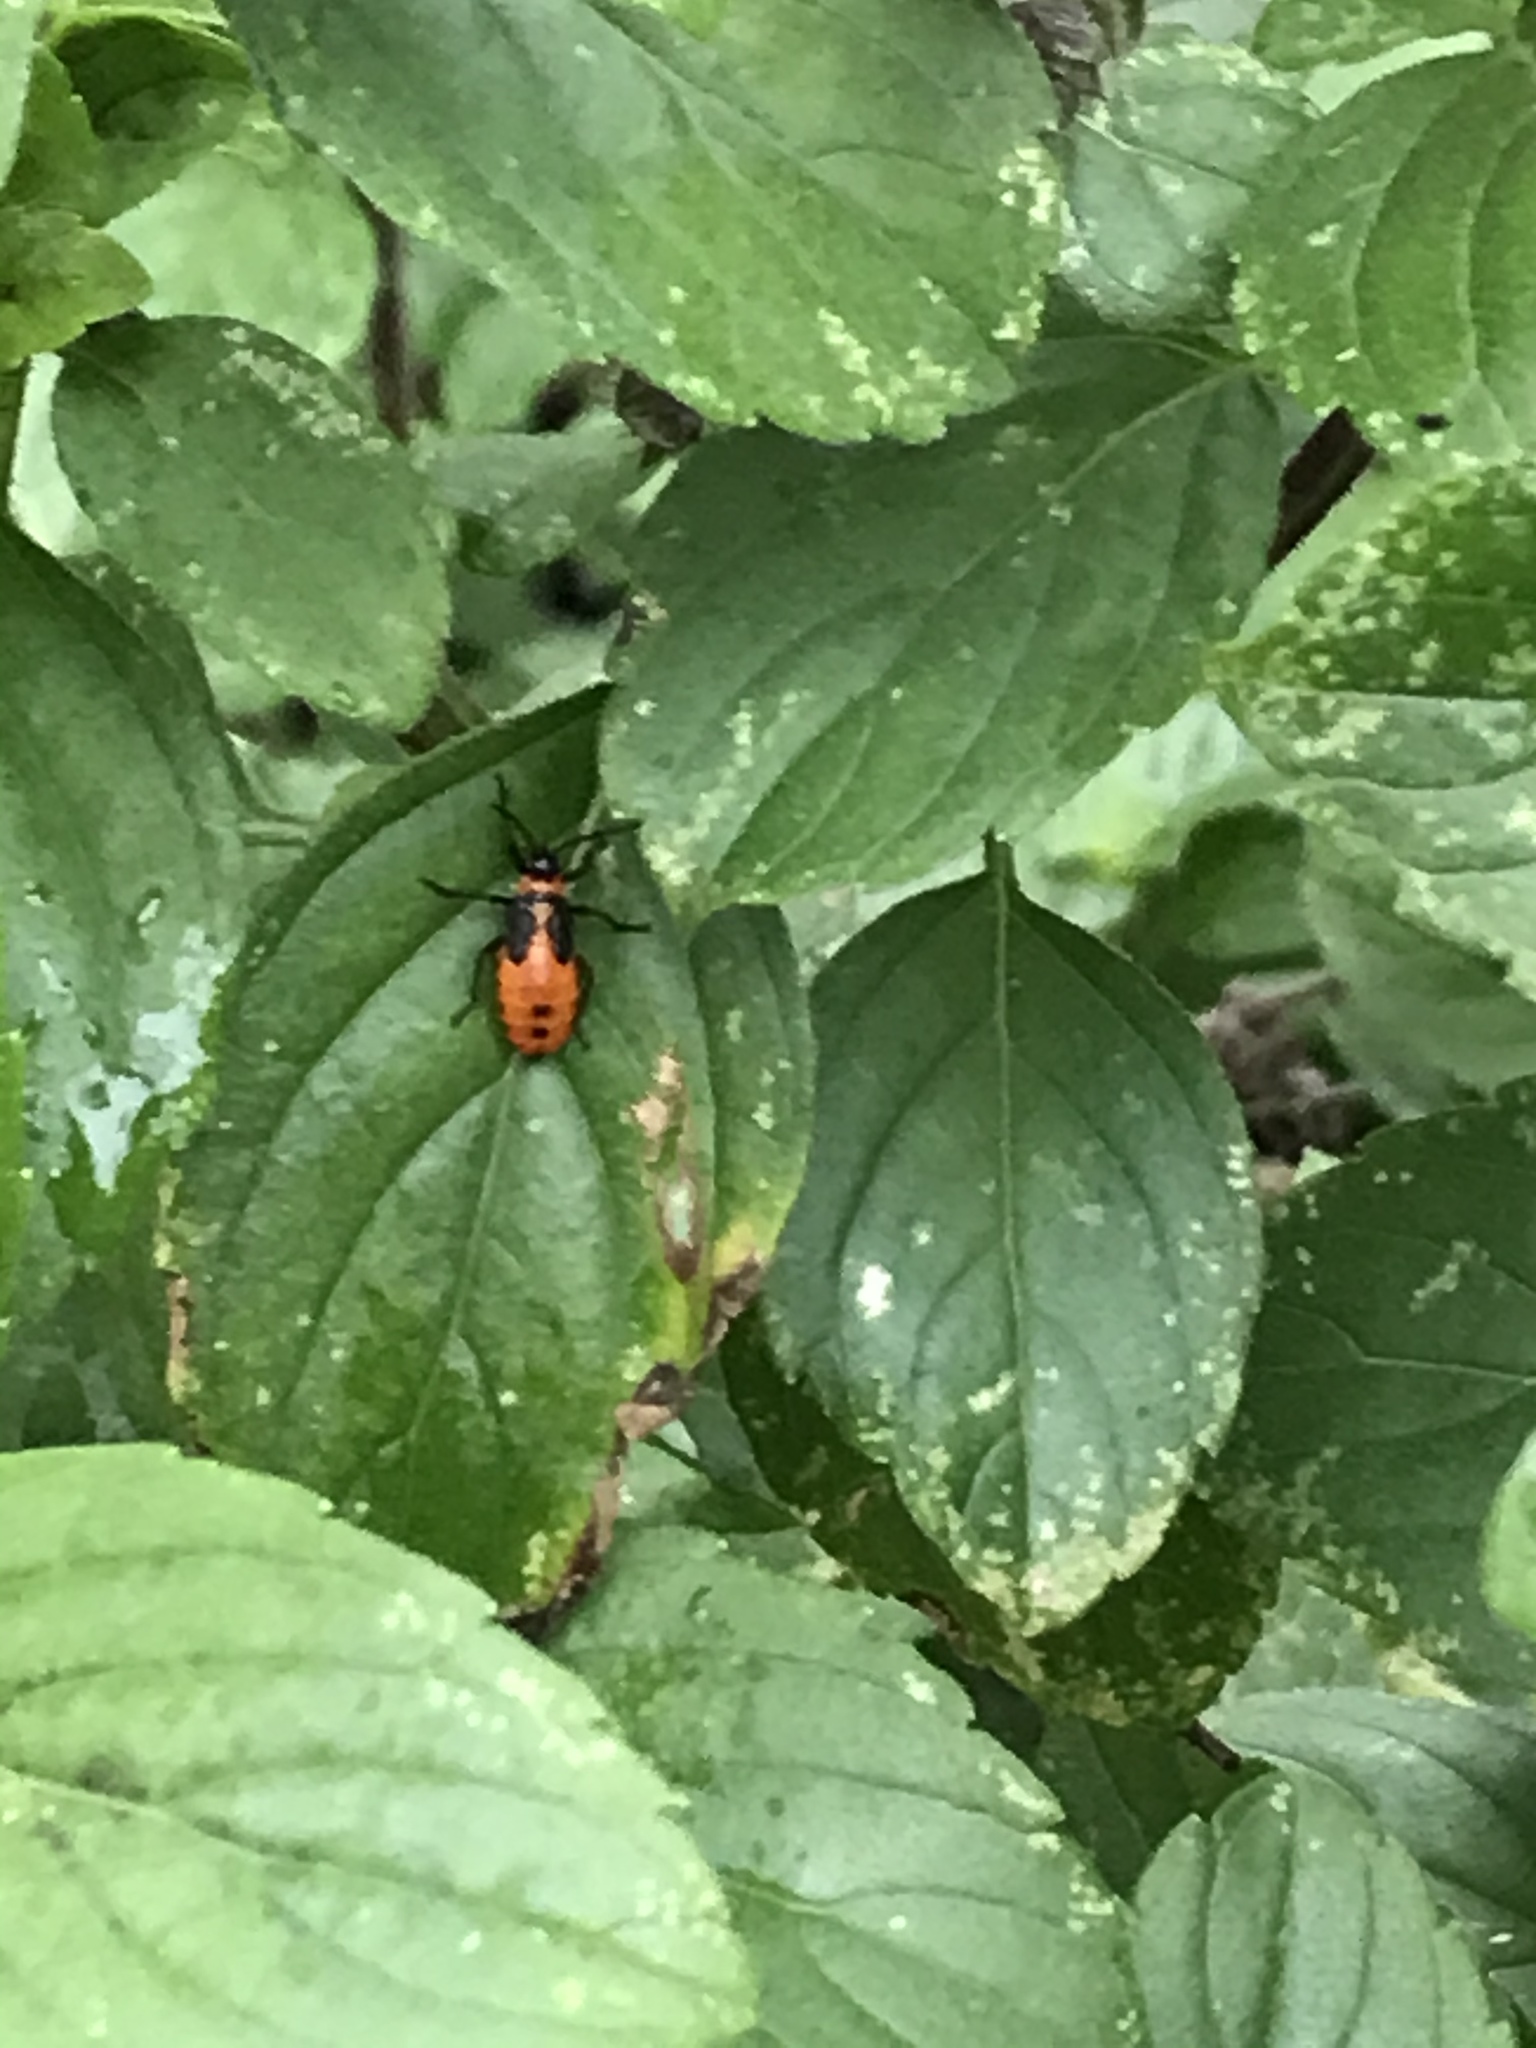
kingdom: Animalia
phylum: Arthropoda
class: Insecta
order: Hemiptera
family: Lygaeidae
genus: Oncopeltus
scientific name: Oncopeltus fasciatus
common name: Large milkweed bug
